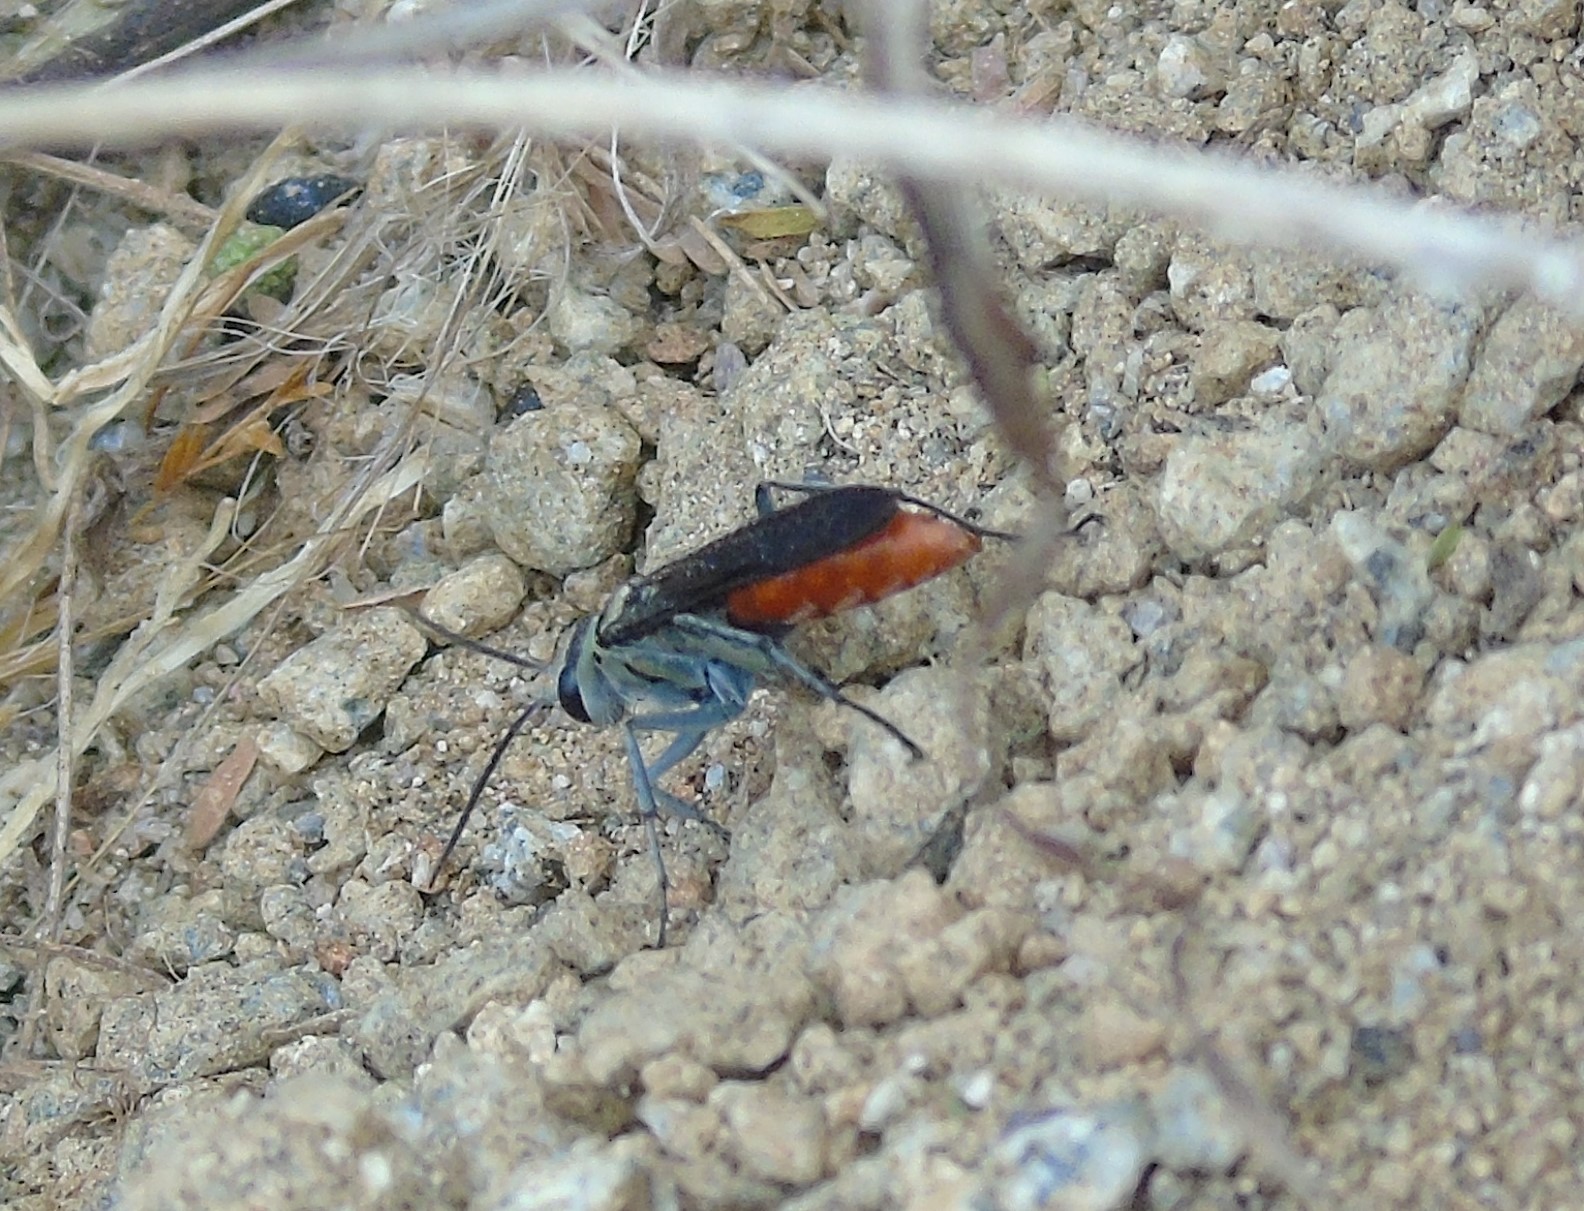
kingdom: Animalia
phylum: Arthropoda
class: Insecta
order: Hymenoptera
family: Pompilidae
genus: Xerochares
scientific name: Xerochares expulsus
